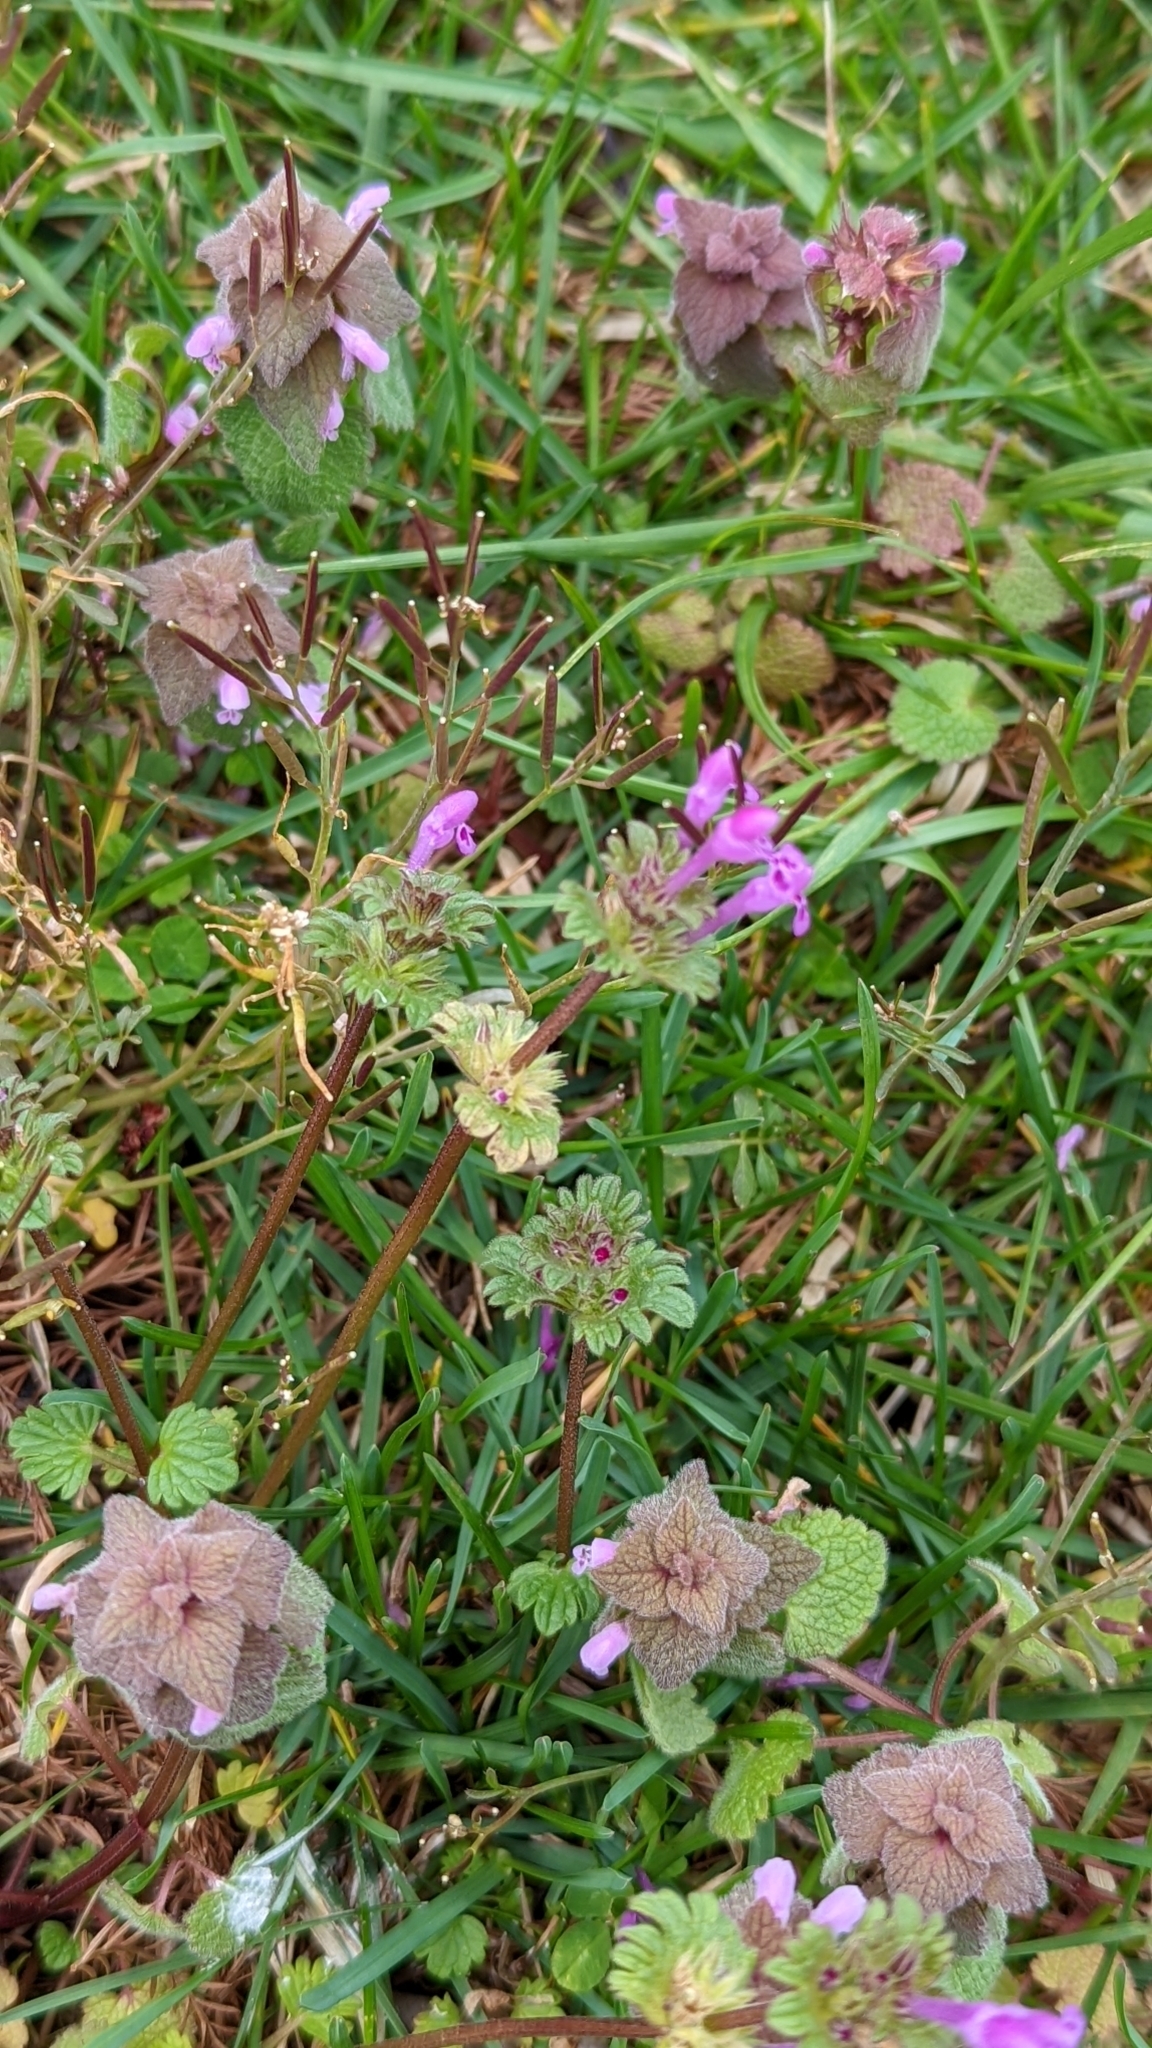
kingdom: Plantae
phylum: Tracheophyta
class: Magnoliopsida
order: Lamiales
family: Lamiaceae
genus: Lamium
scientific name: Lamium amplexicaule
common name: Henbit dead-nettle
